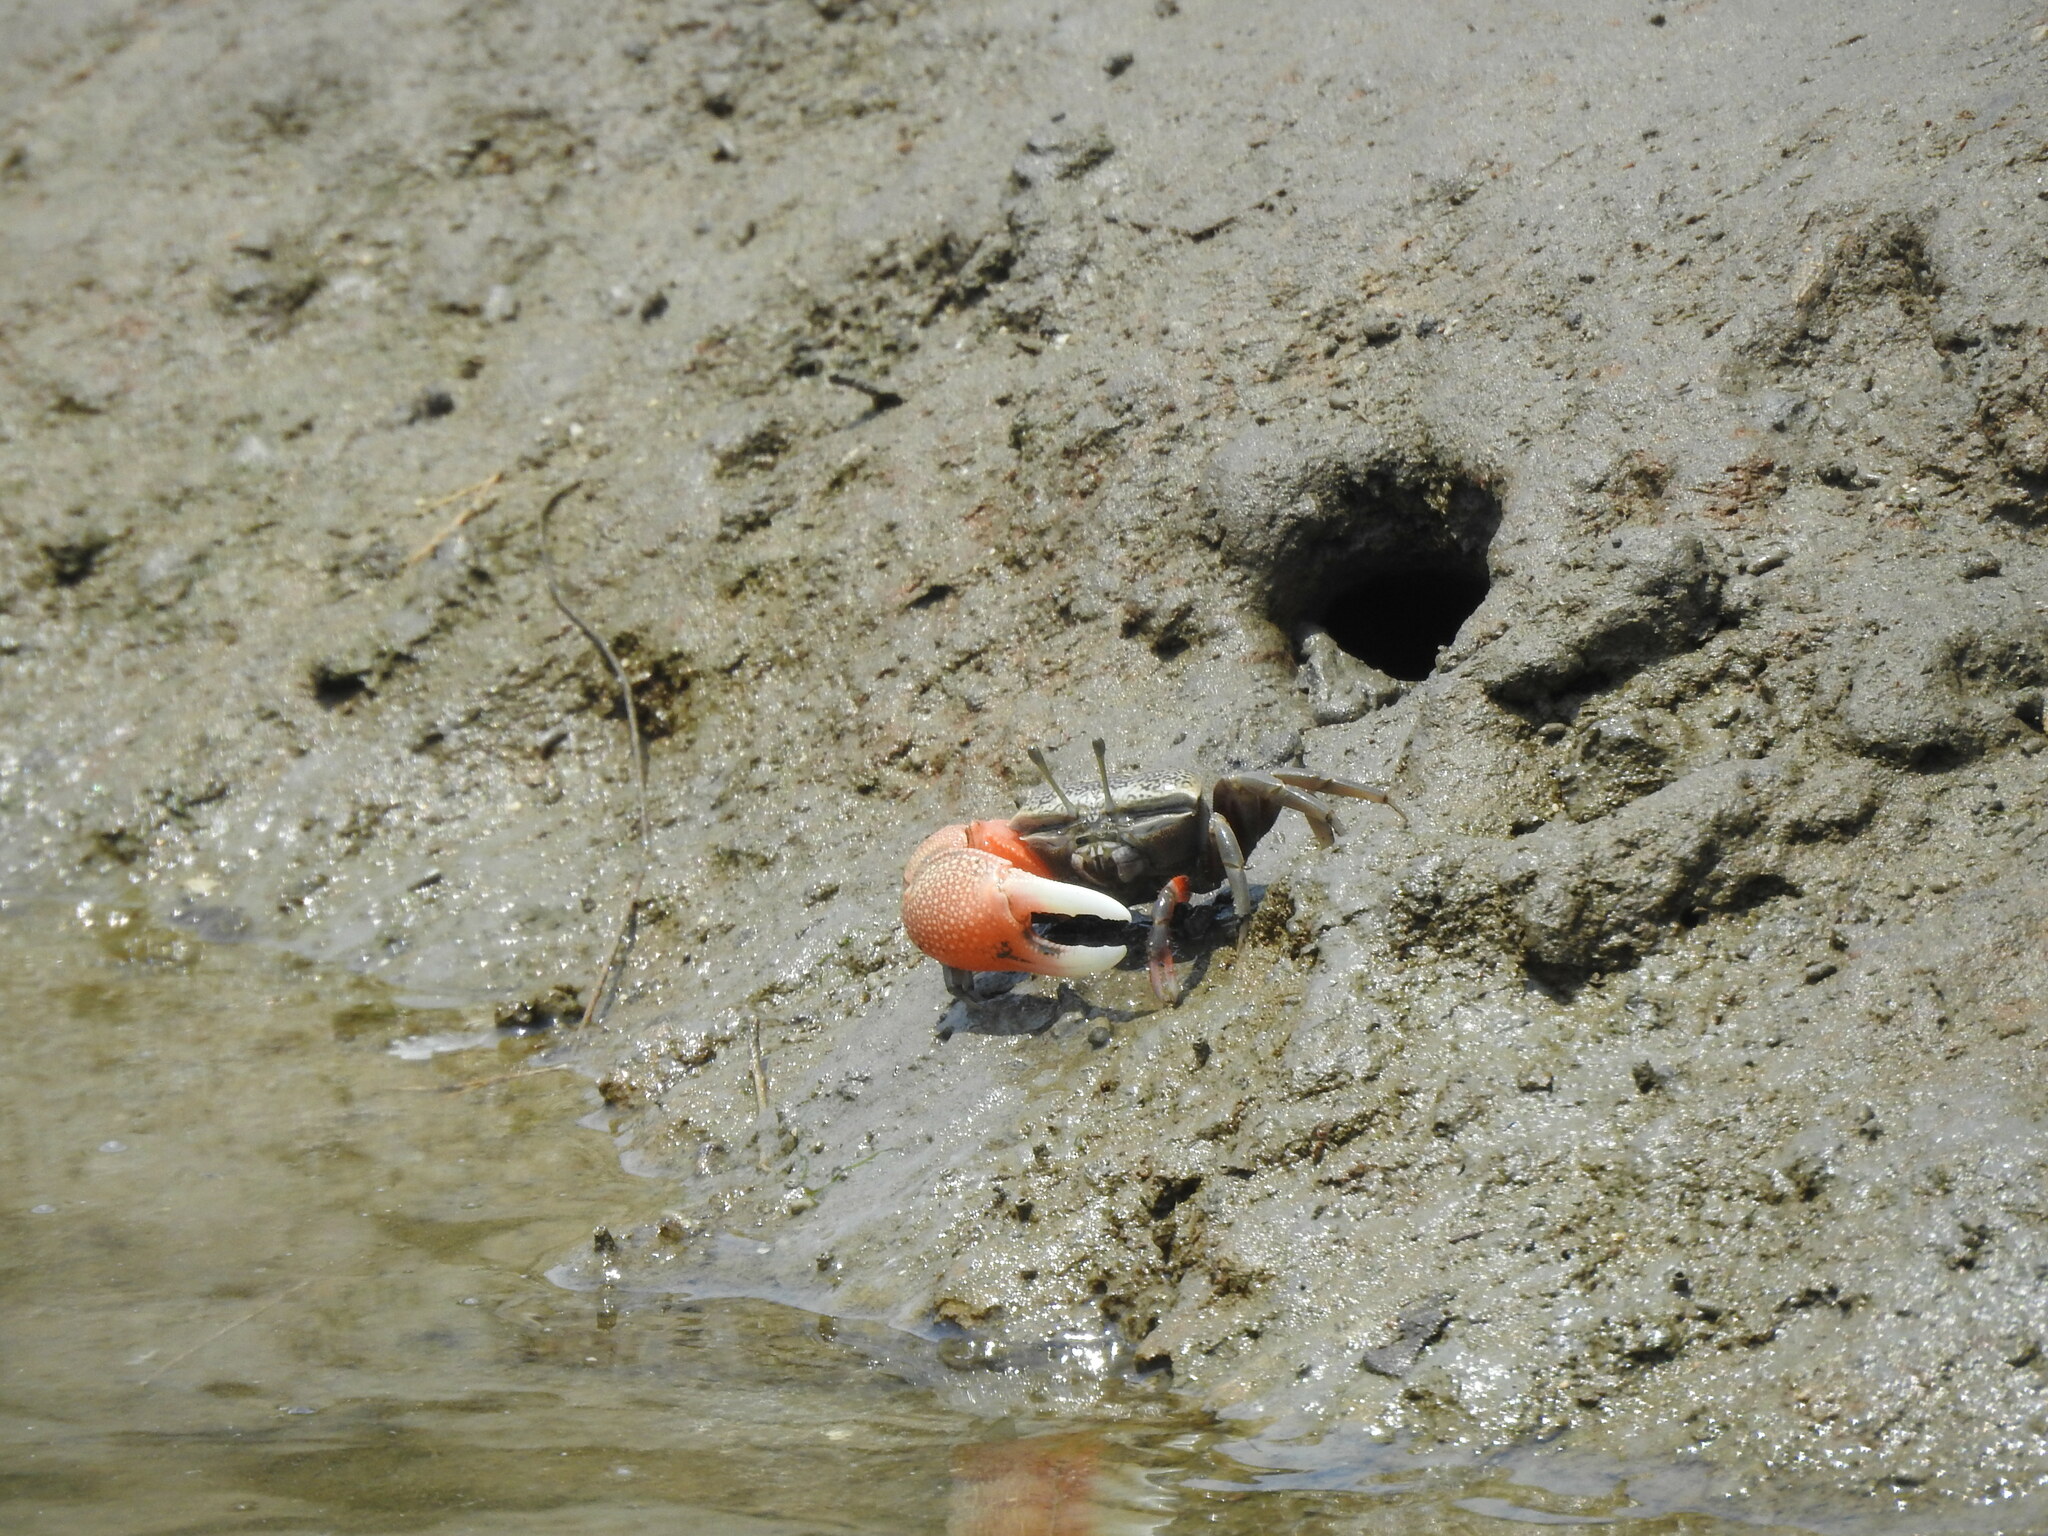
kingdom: Animalia
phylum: Arthropoda
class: Malacostraca
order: Decapoda
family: Ocypodidae
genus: Tubuca
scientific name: Tubuca arcuata
